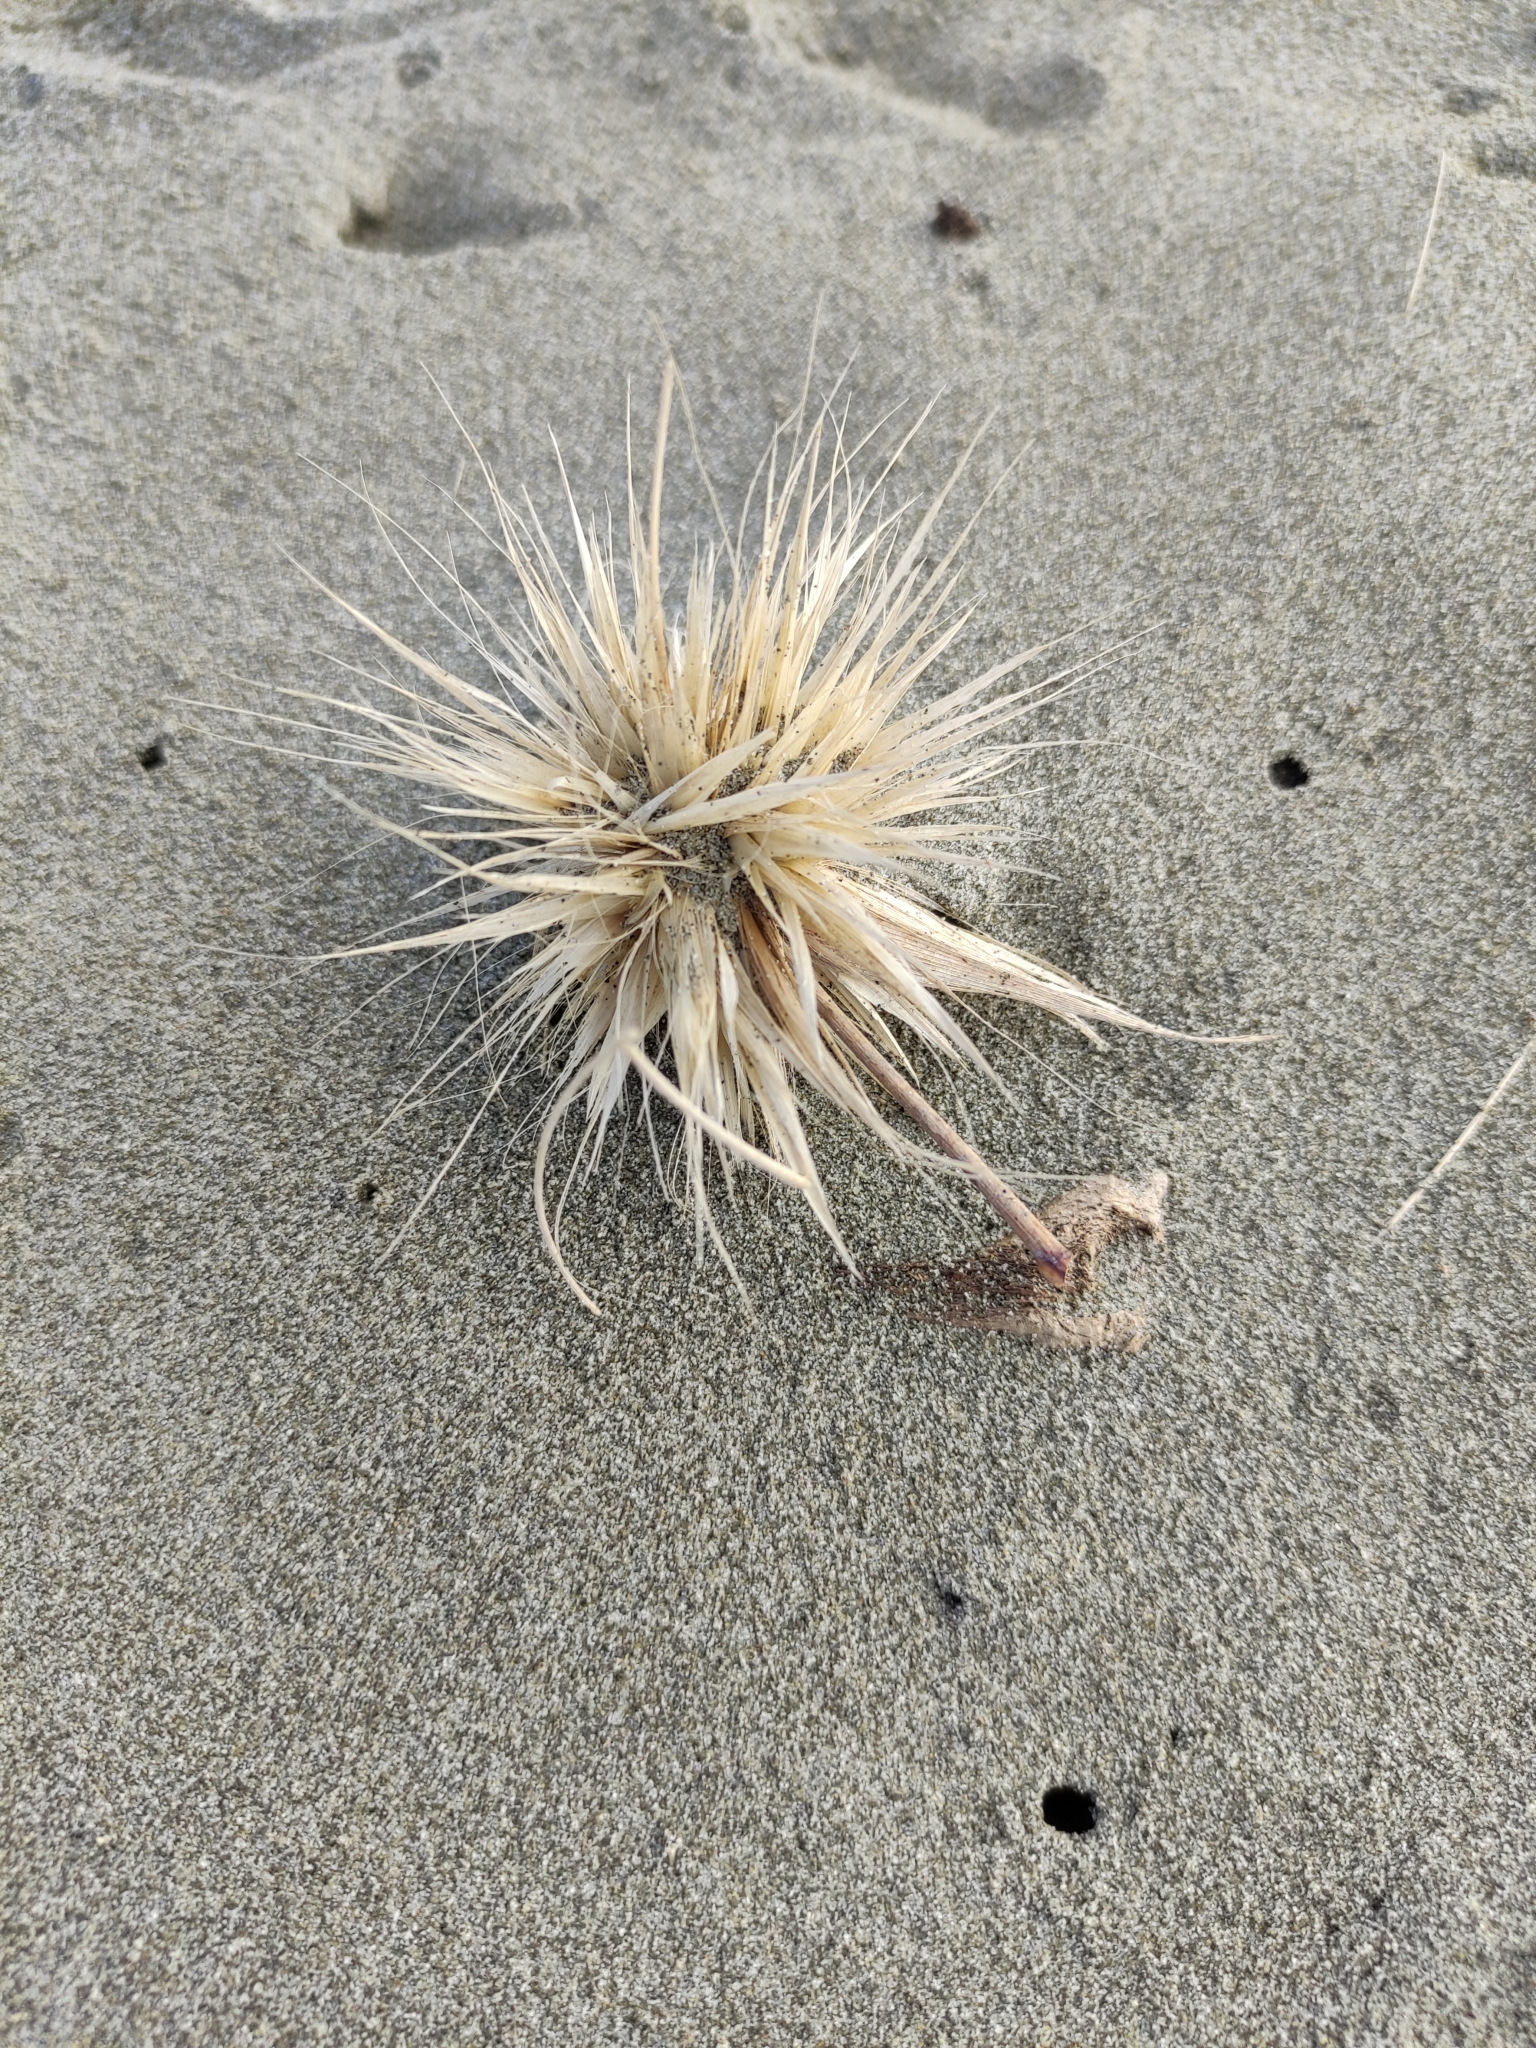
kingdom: Plantae
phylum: Tracheophyta
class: Liliopsida
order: Poales
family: Poaceae
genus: Spinifex
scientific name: Spinifex sericeus
